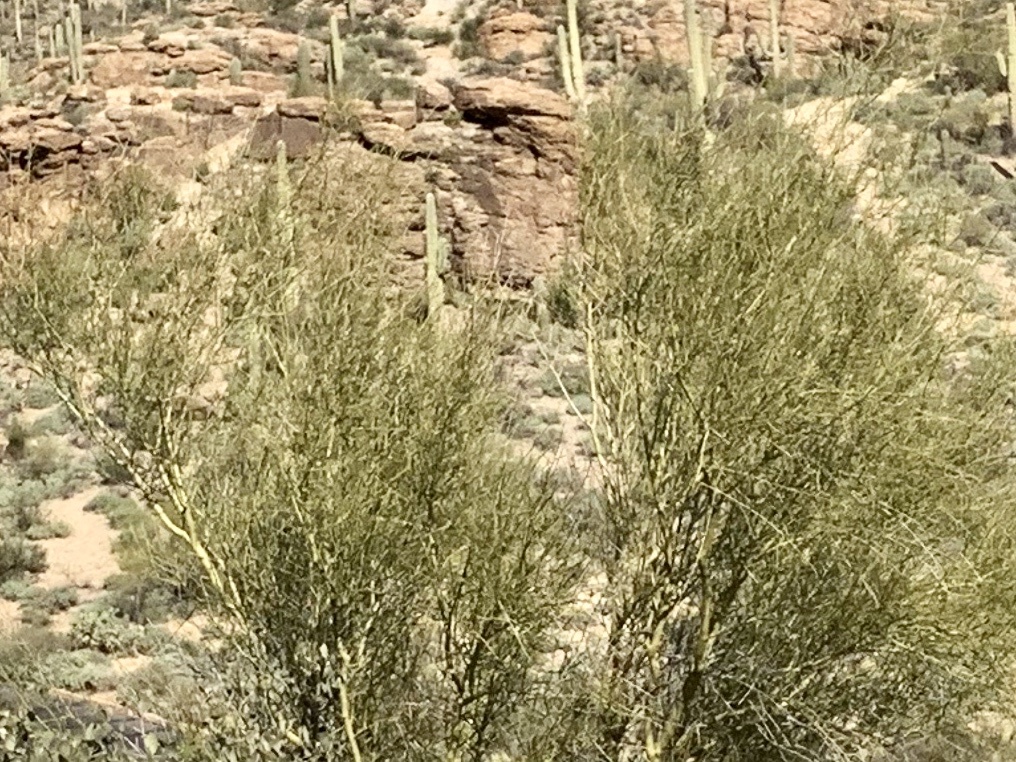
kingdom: Plantae
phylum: Tracheophyta
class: Magnoliopsida
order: Fabales
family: Fabaceae
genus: Parkinsonia
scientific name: Parkinsonia microphylla
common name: Yellow paloverde
